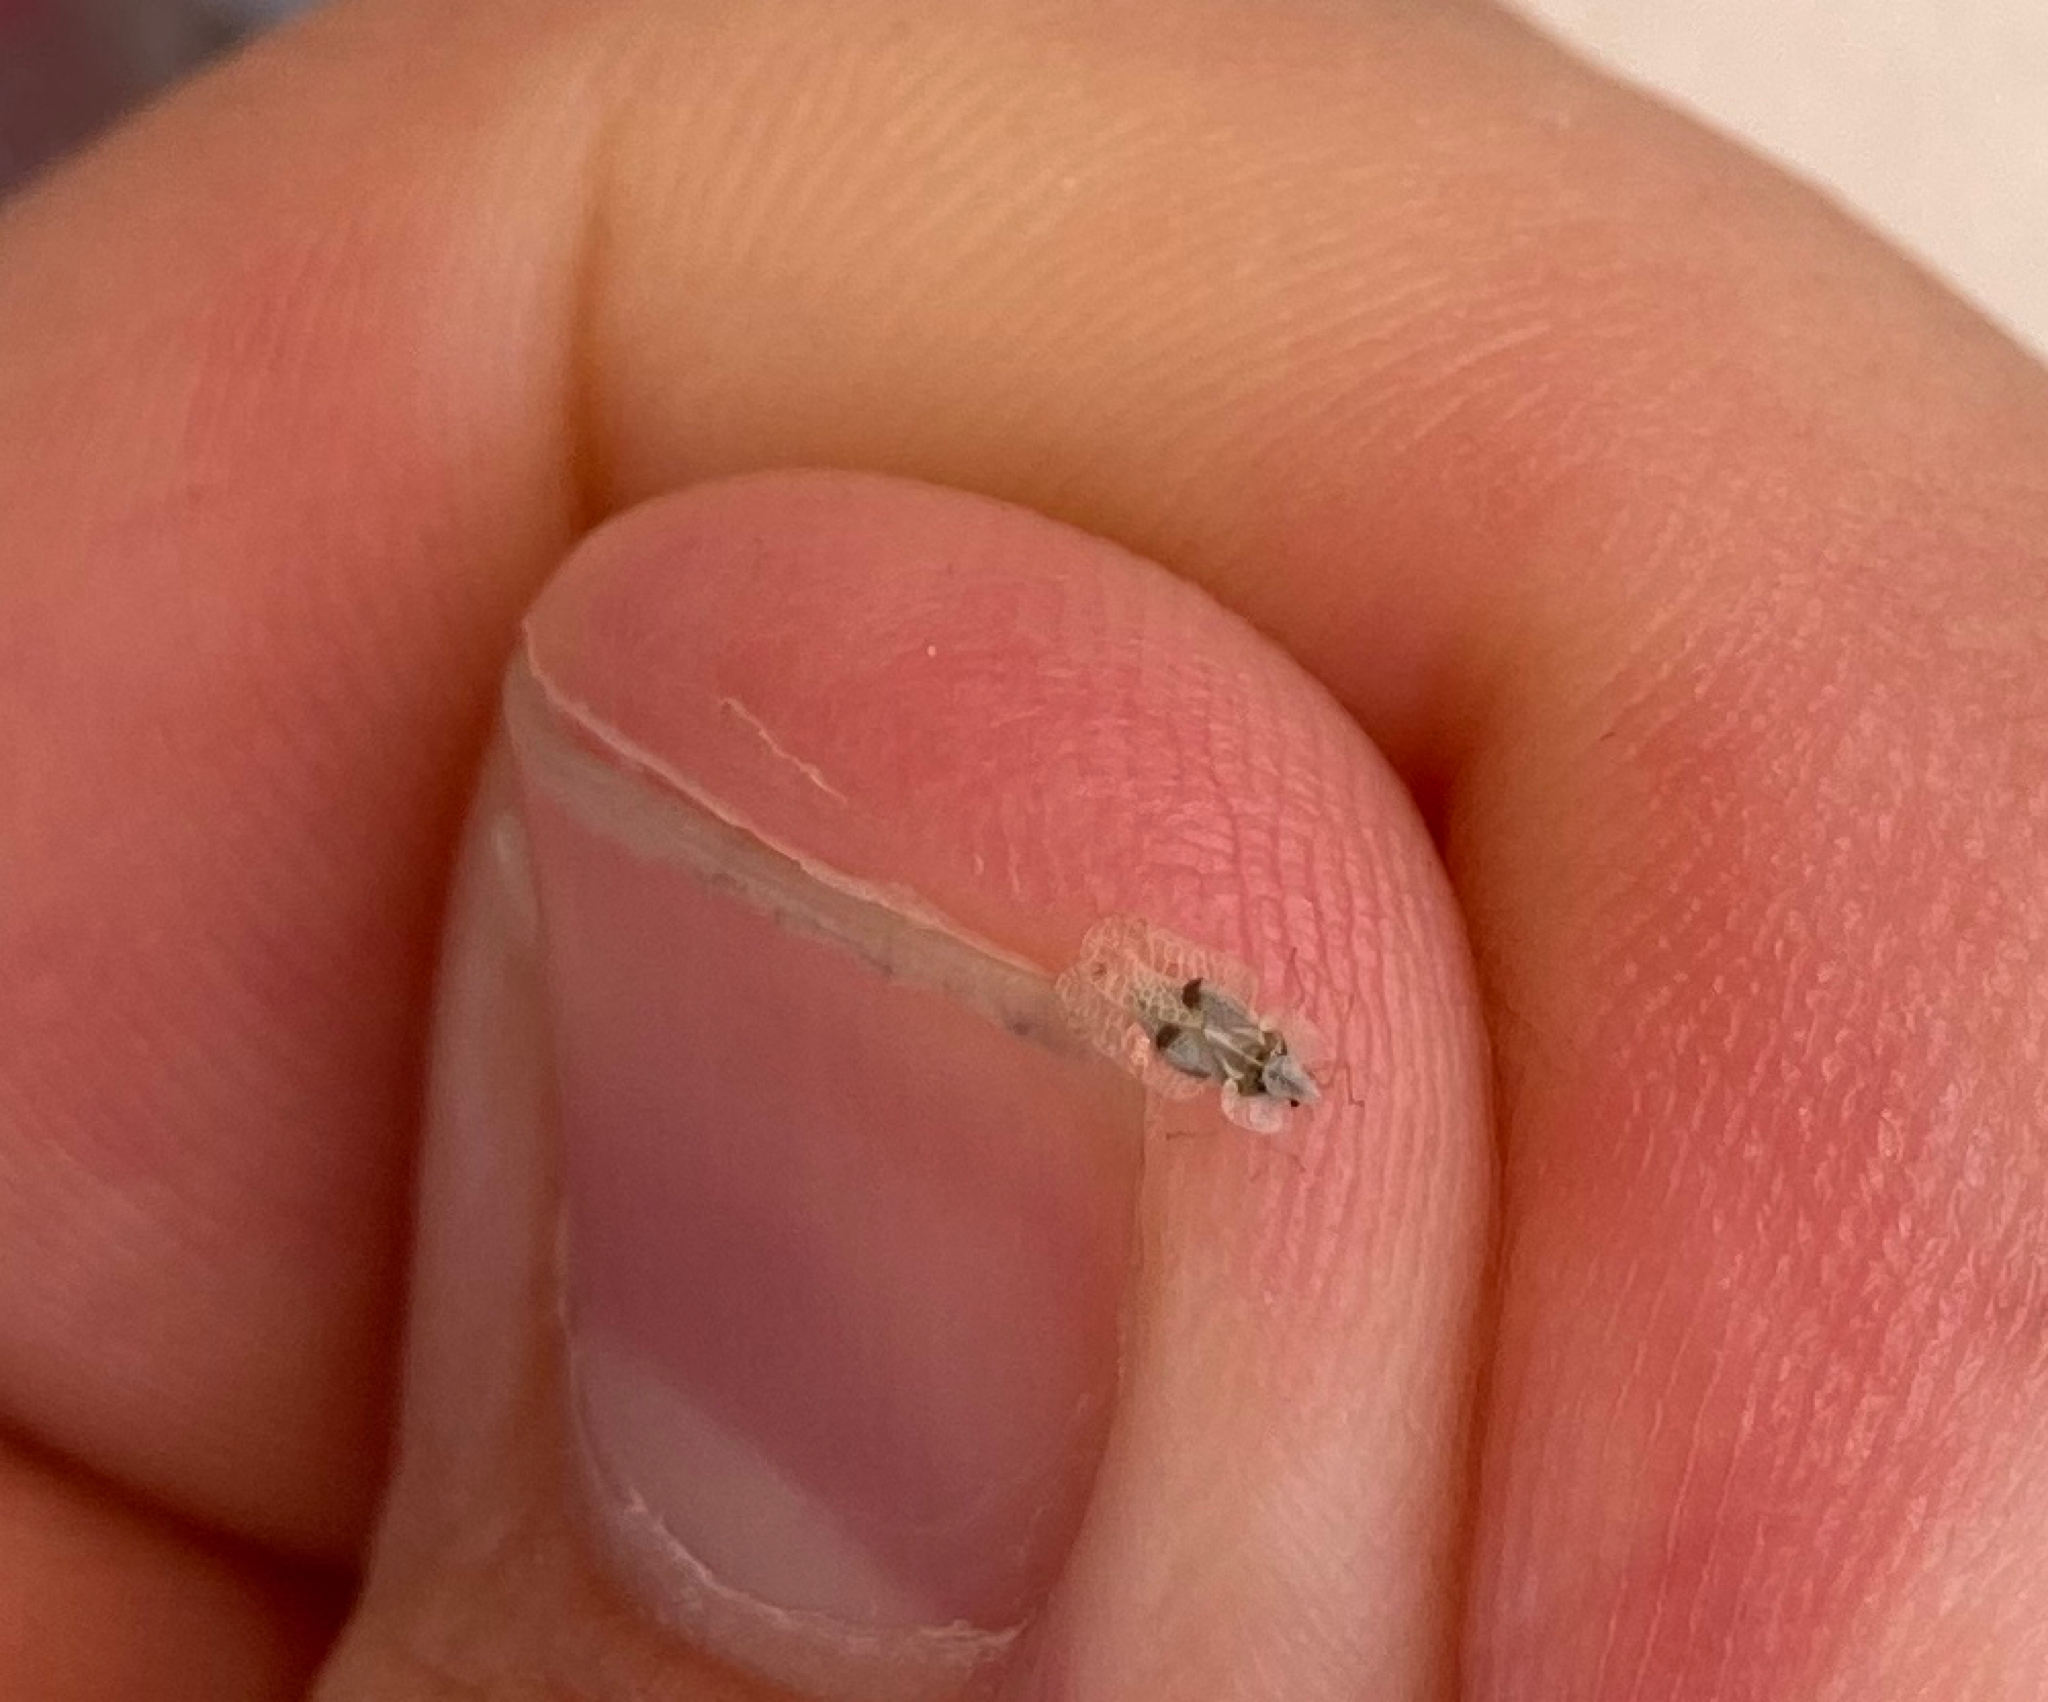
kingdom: Animalia
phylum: Arthropoda
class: Insecta
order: Hemiptera
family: Tingidae
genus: Corythucha
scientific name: Corythucha ciliata
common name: Sycamore lace bug
